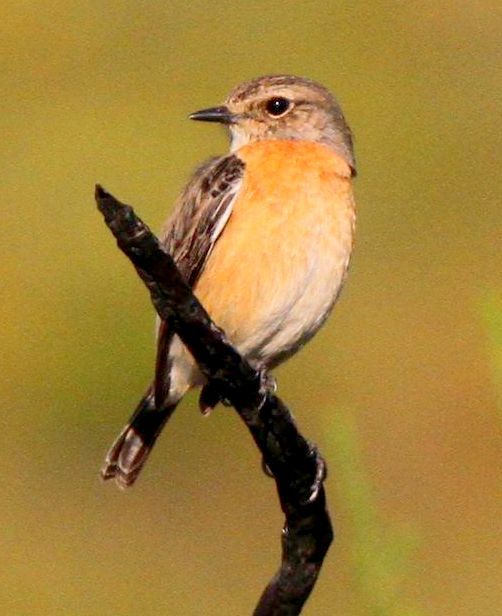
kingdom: Animalia
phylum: Chordata
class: Aves
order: Passeriformes
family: Muscicapidae
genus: Saxicola
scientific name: Saxicola torquatus
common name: African stonechat
